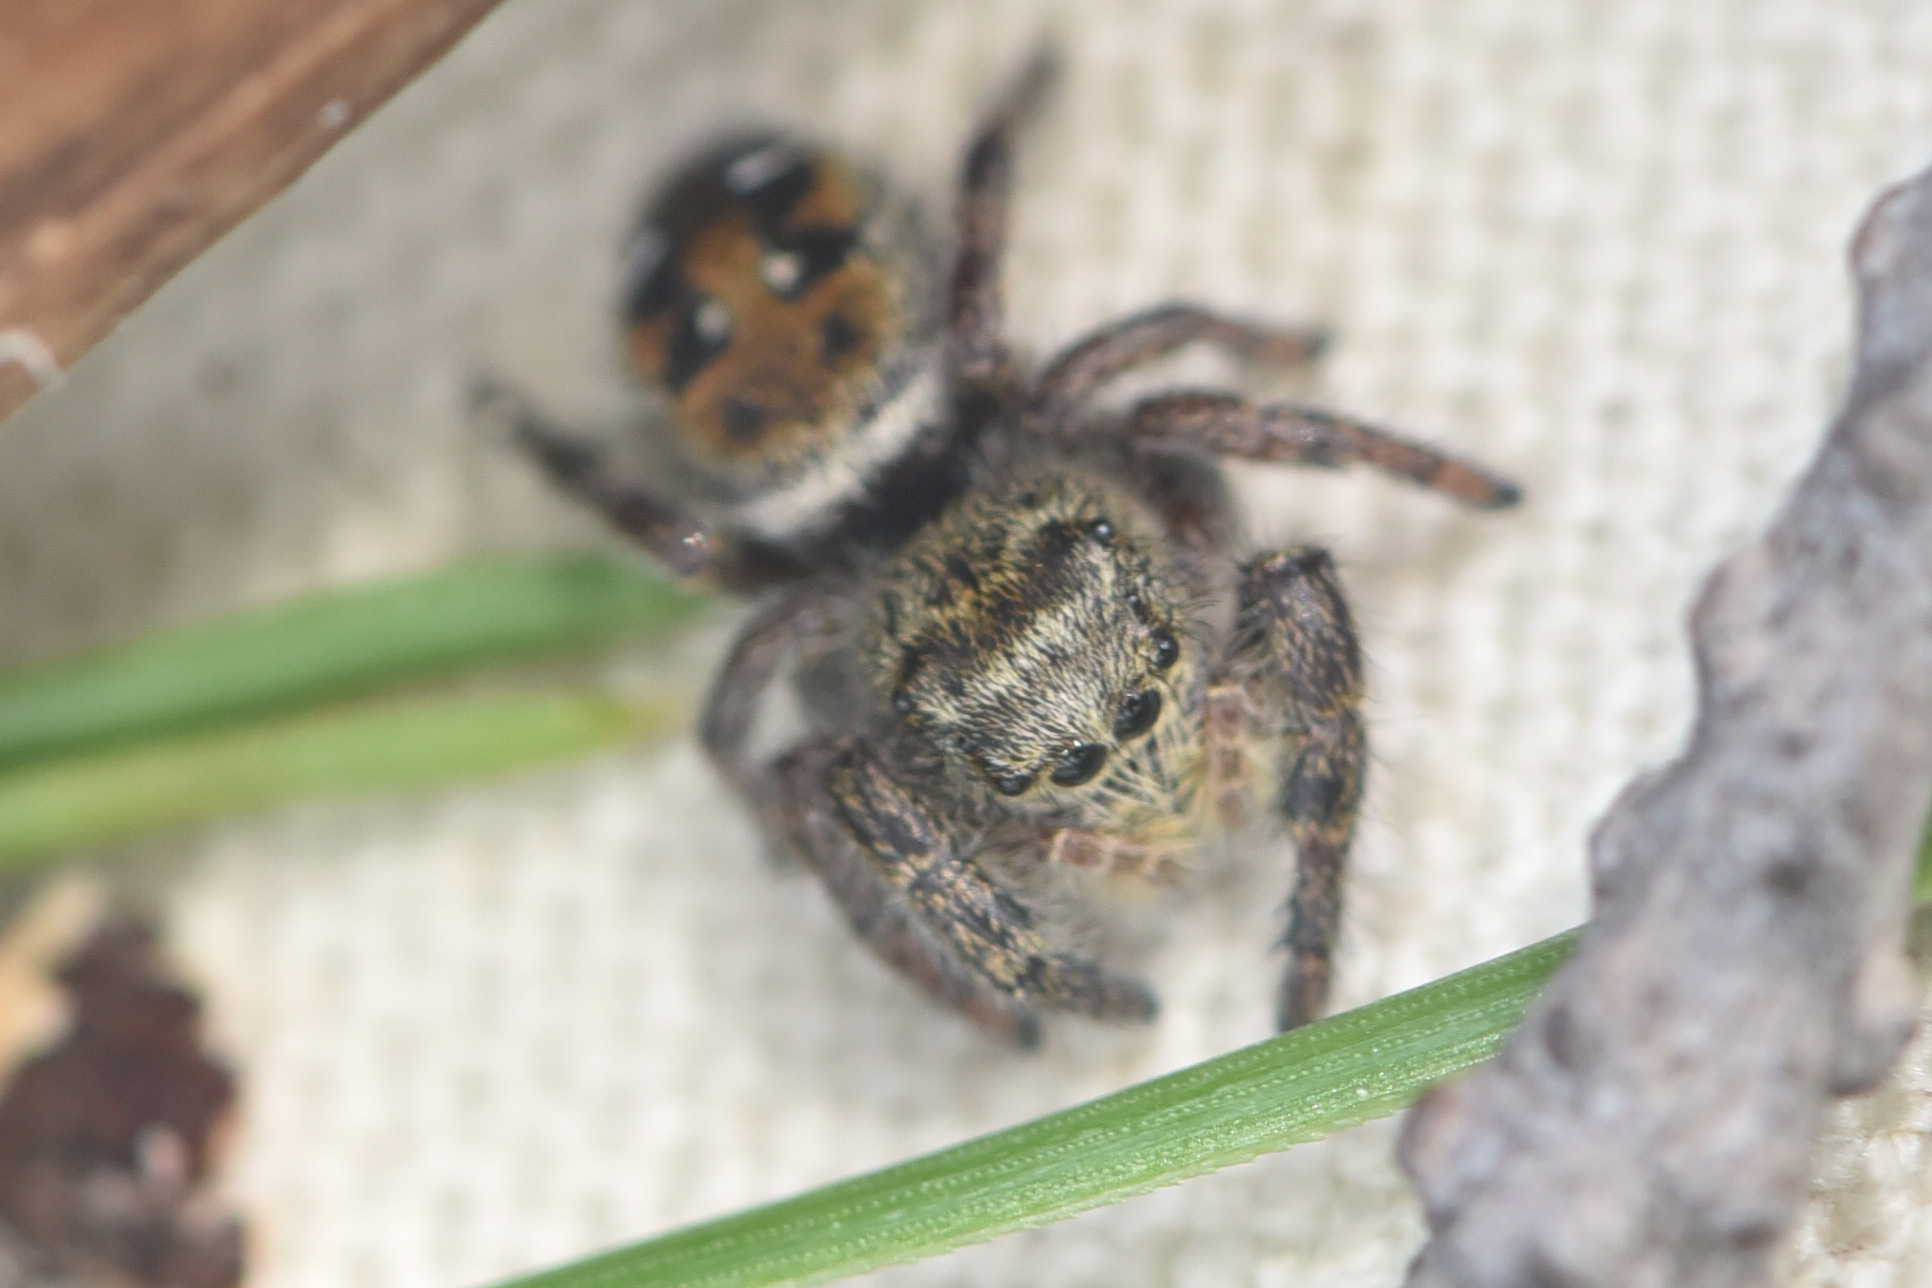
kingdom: Animalia
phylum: Arthropoda
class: Arachnida
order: Araneae
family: Salticidae
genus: Phidippus
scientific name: Phidippus cryptus
